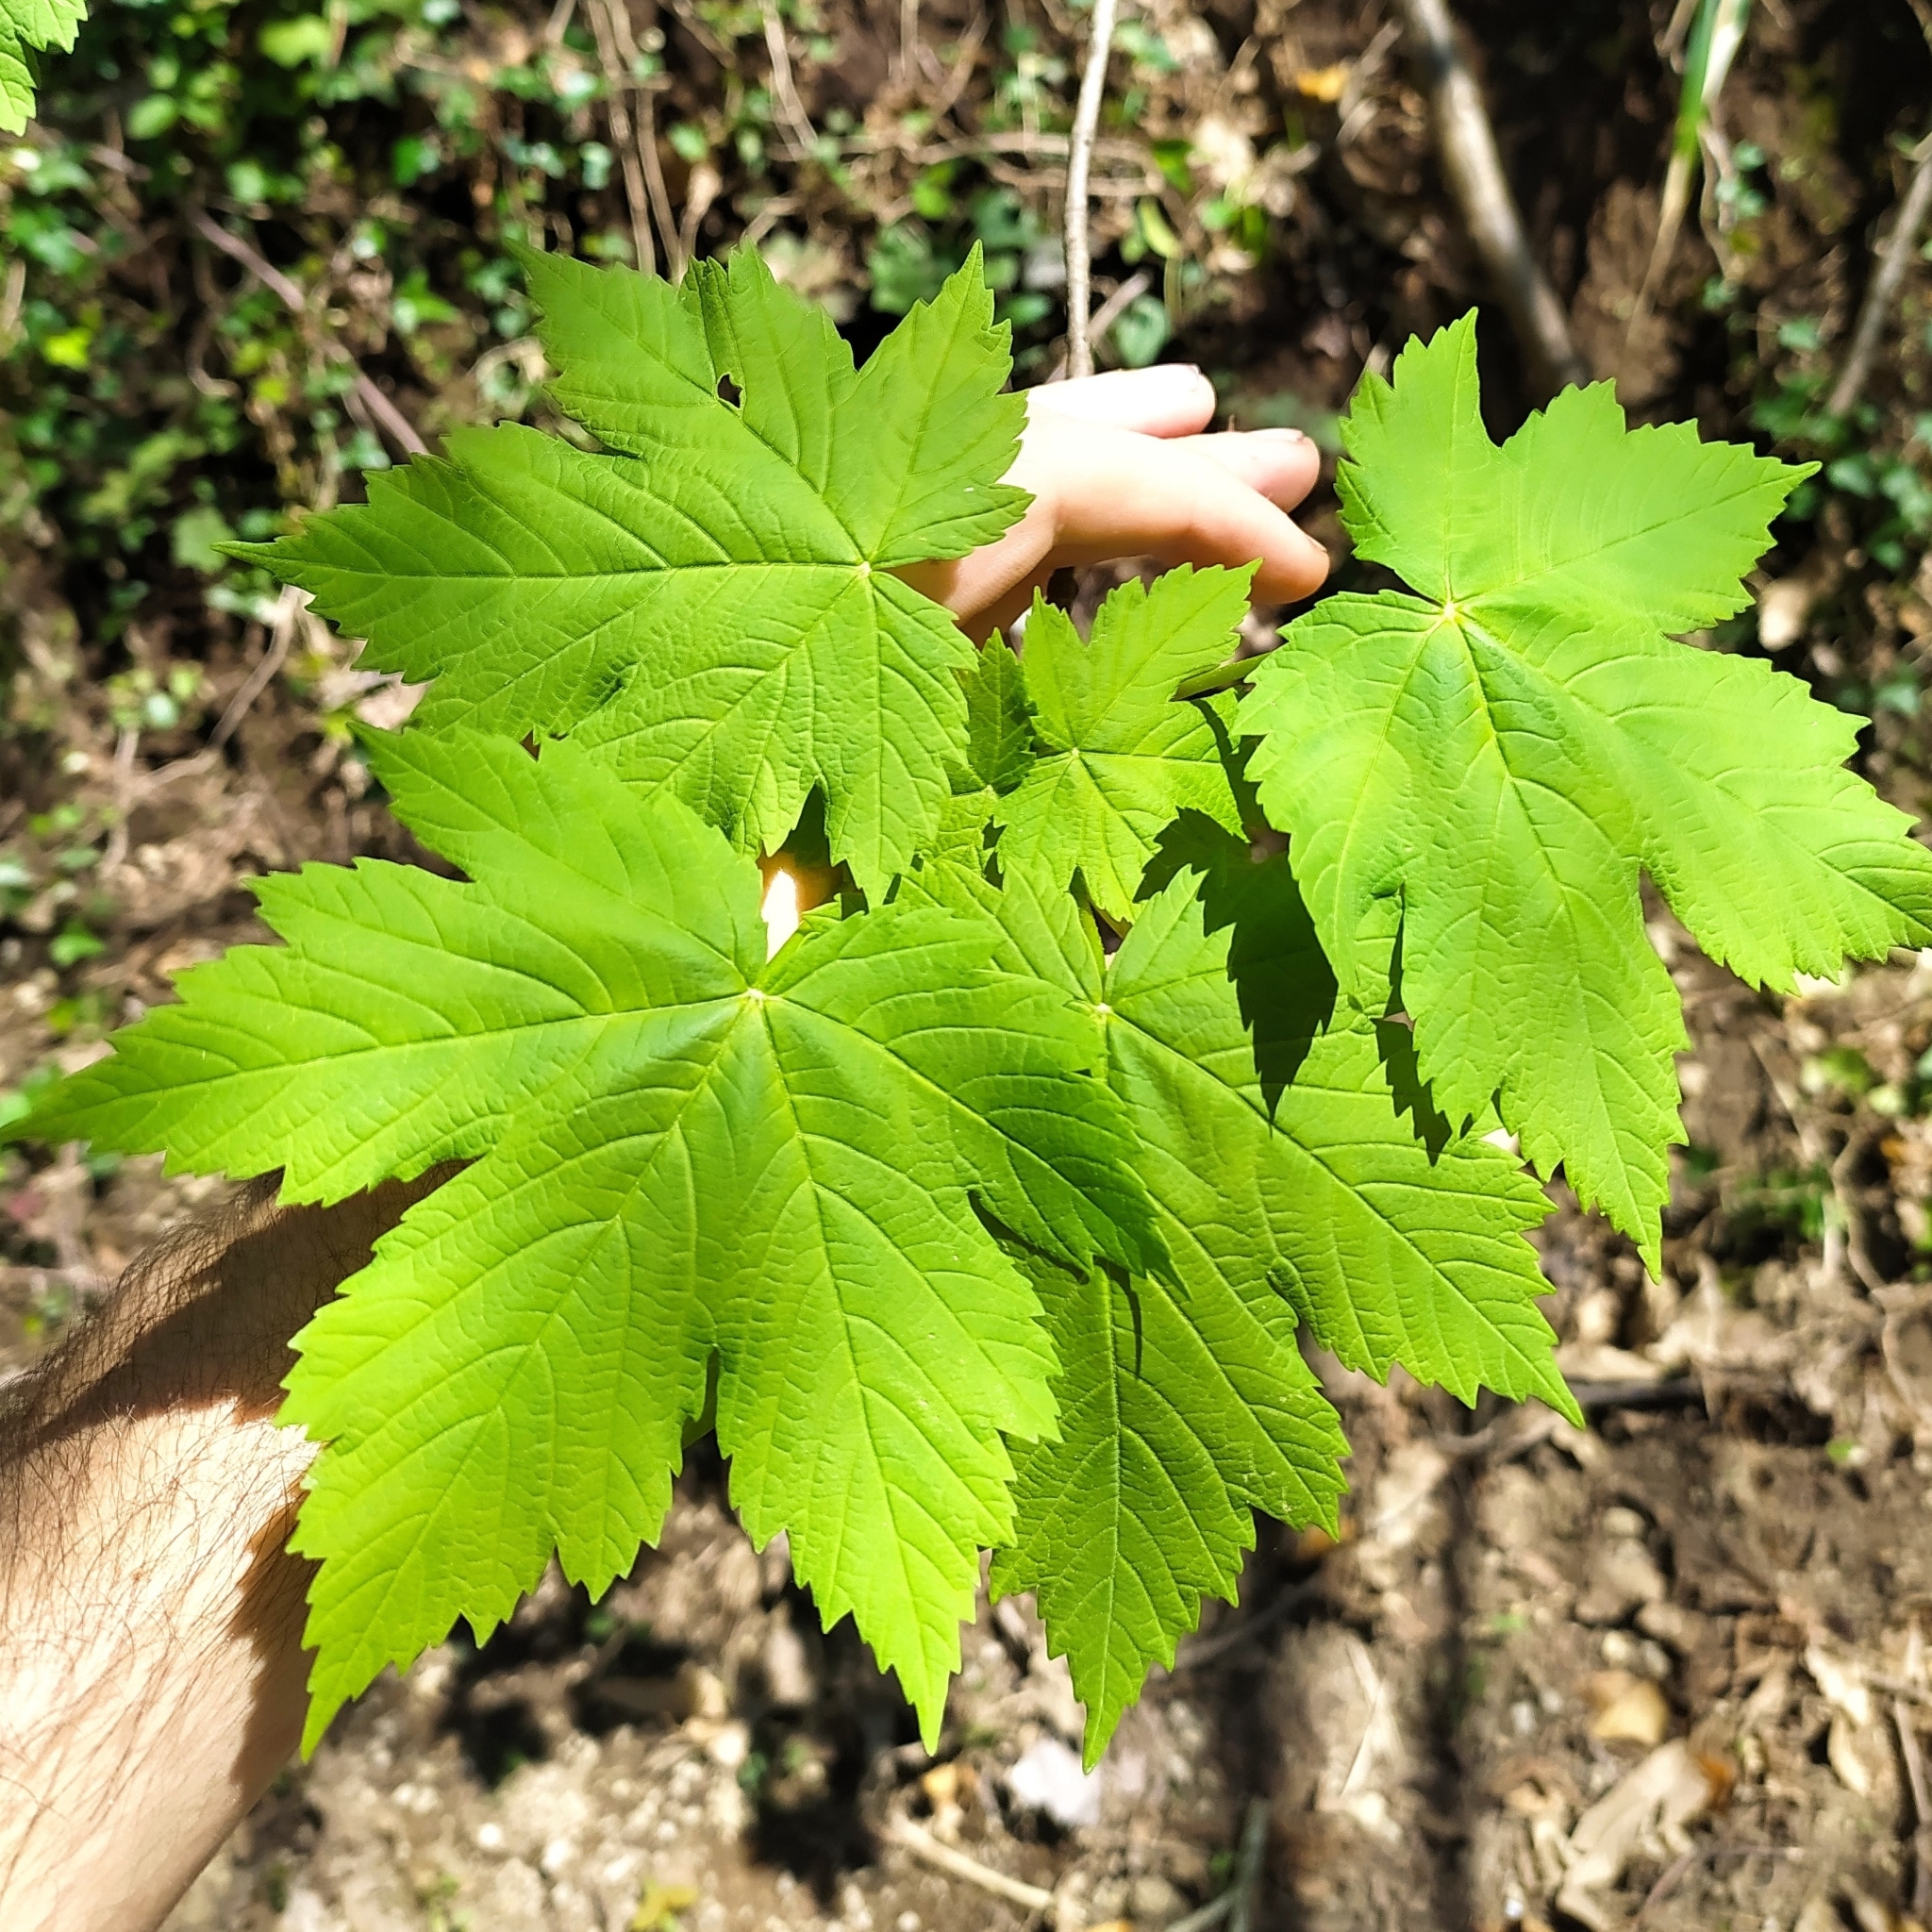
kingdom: Plantae
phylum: Tracheophyta
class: Magnoliopsida
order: Sapindales
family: Sapindaceae
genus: Acer
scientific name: Acer pseudoplatanus
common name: Sycamore
